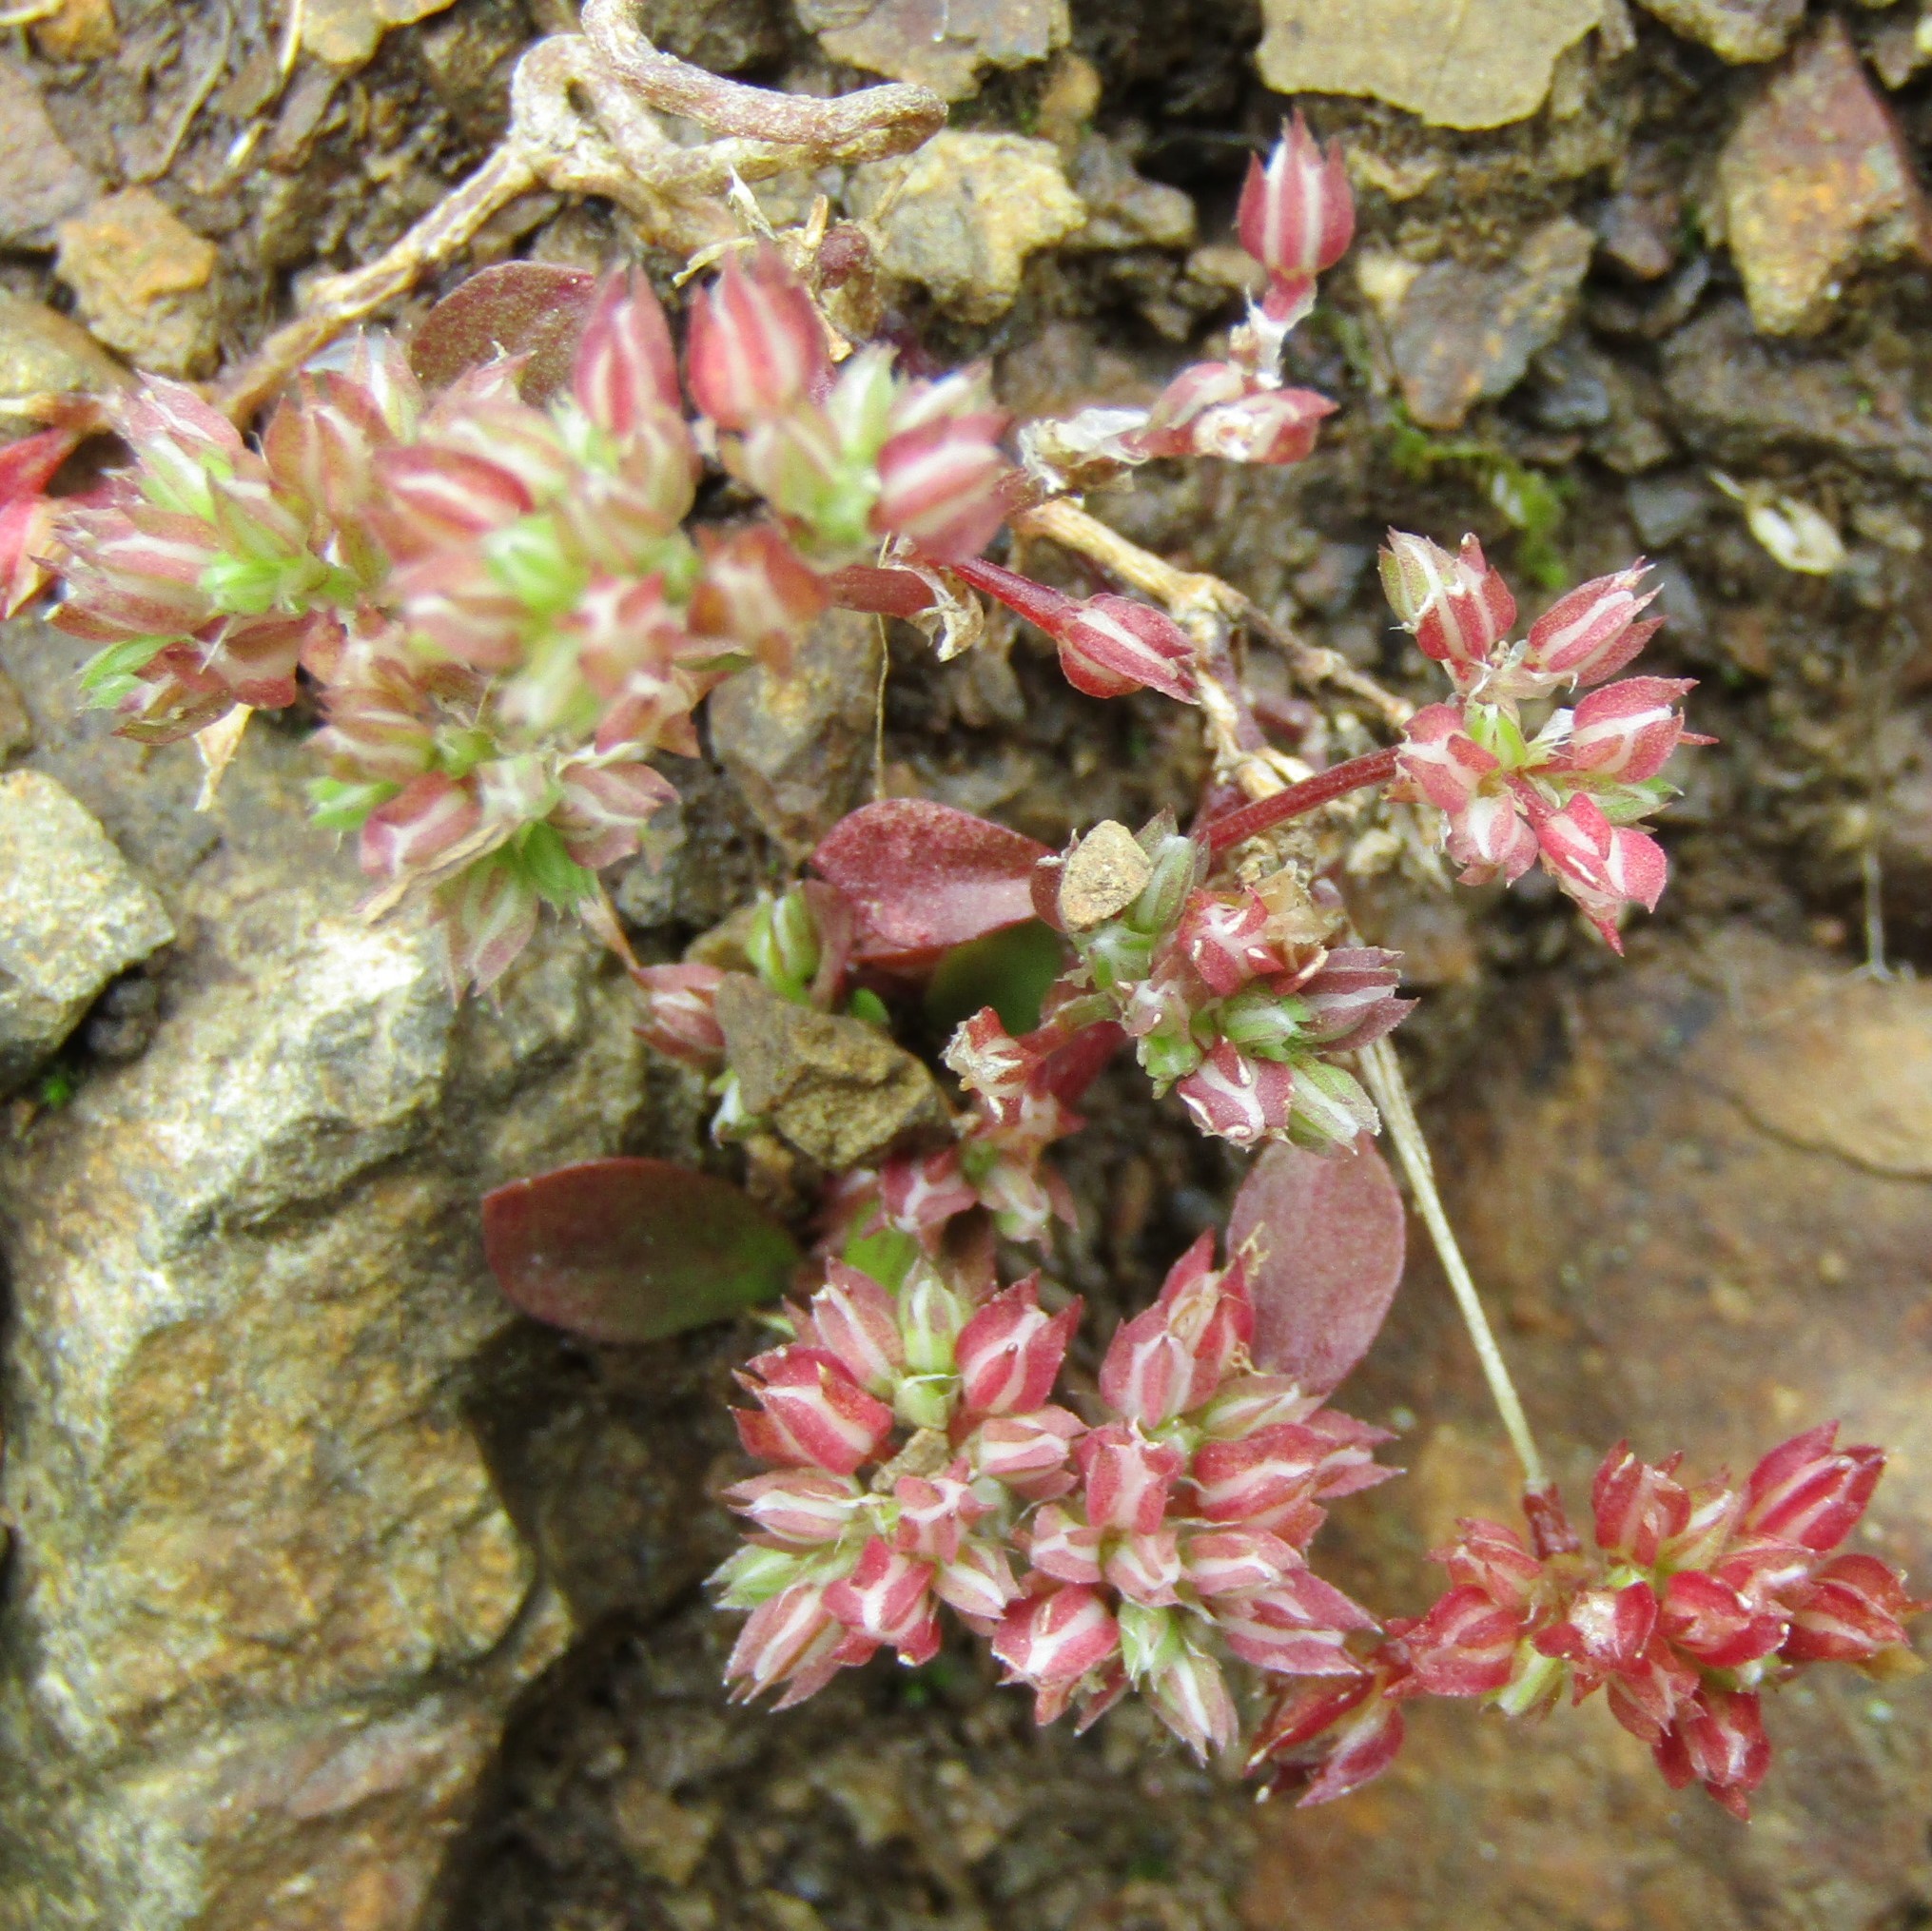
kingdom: Plantae
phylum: Tracheophyta
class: Magnoliopsida
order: Caryophyllales
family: Caryophyllaceae
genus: Polycarpon
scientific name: Polycarpon tetraphyllum
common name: Four-leaved all-seed
